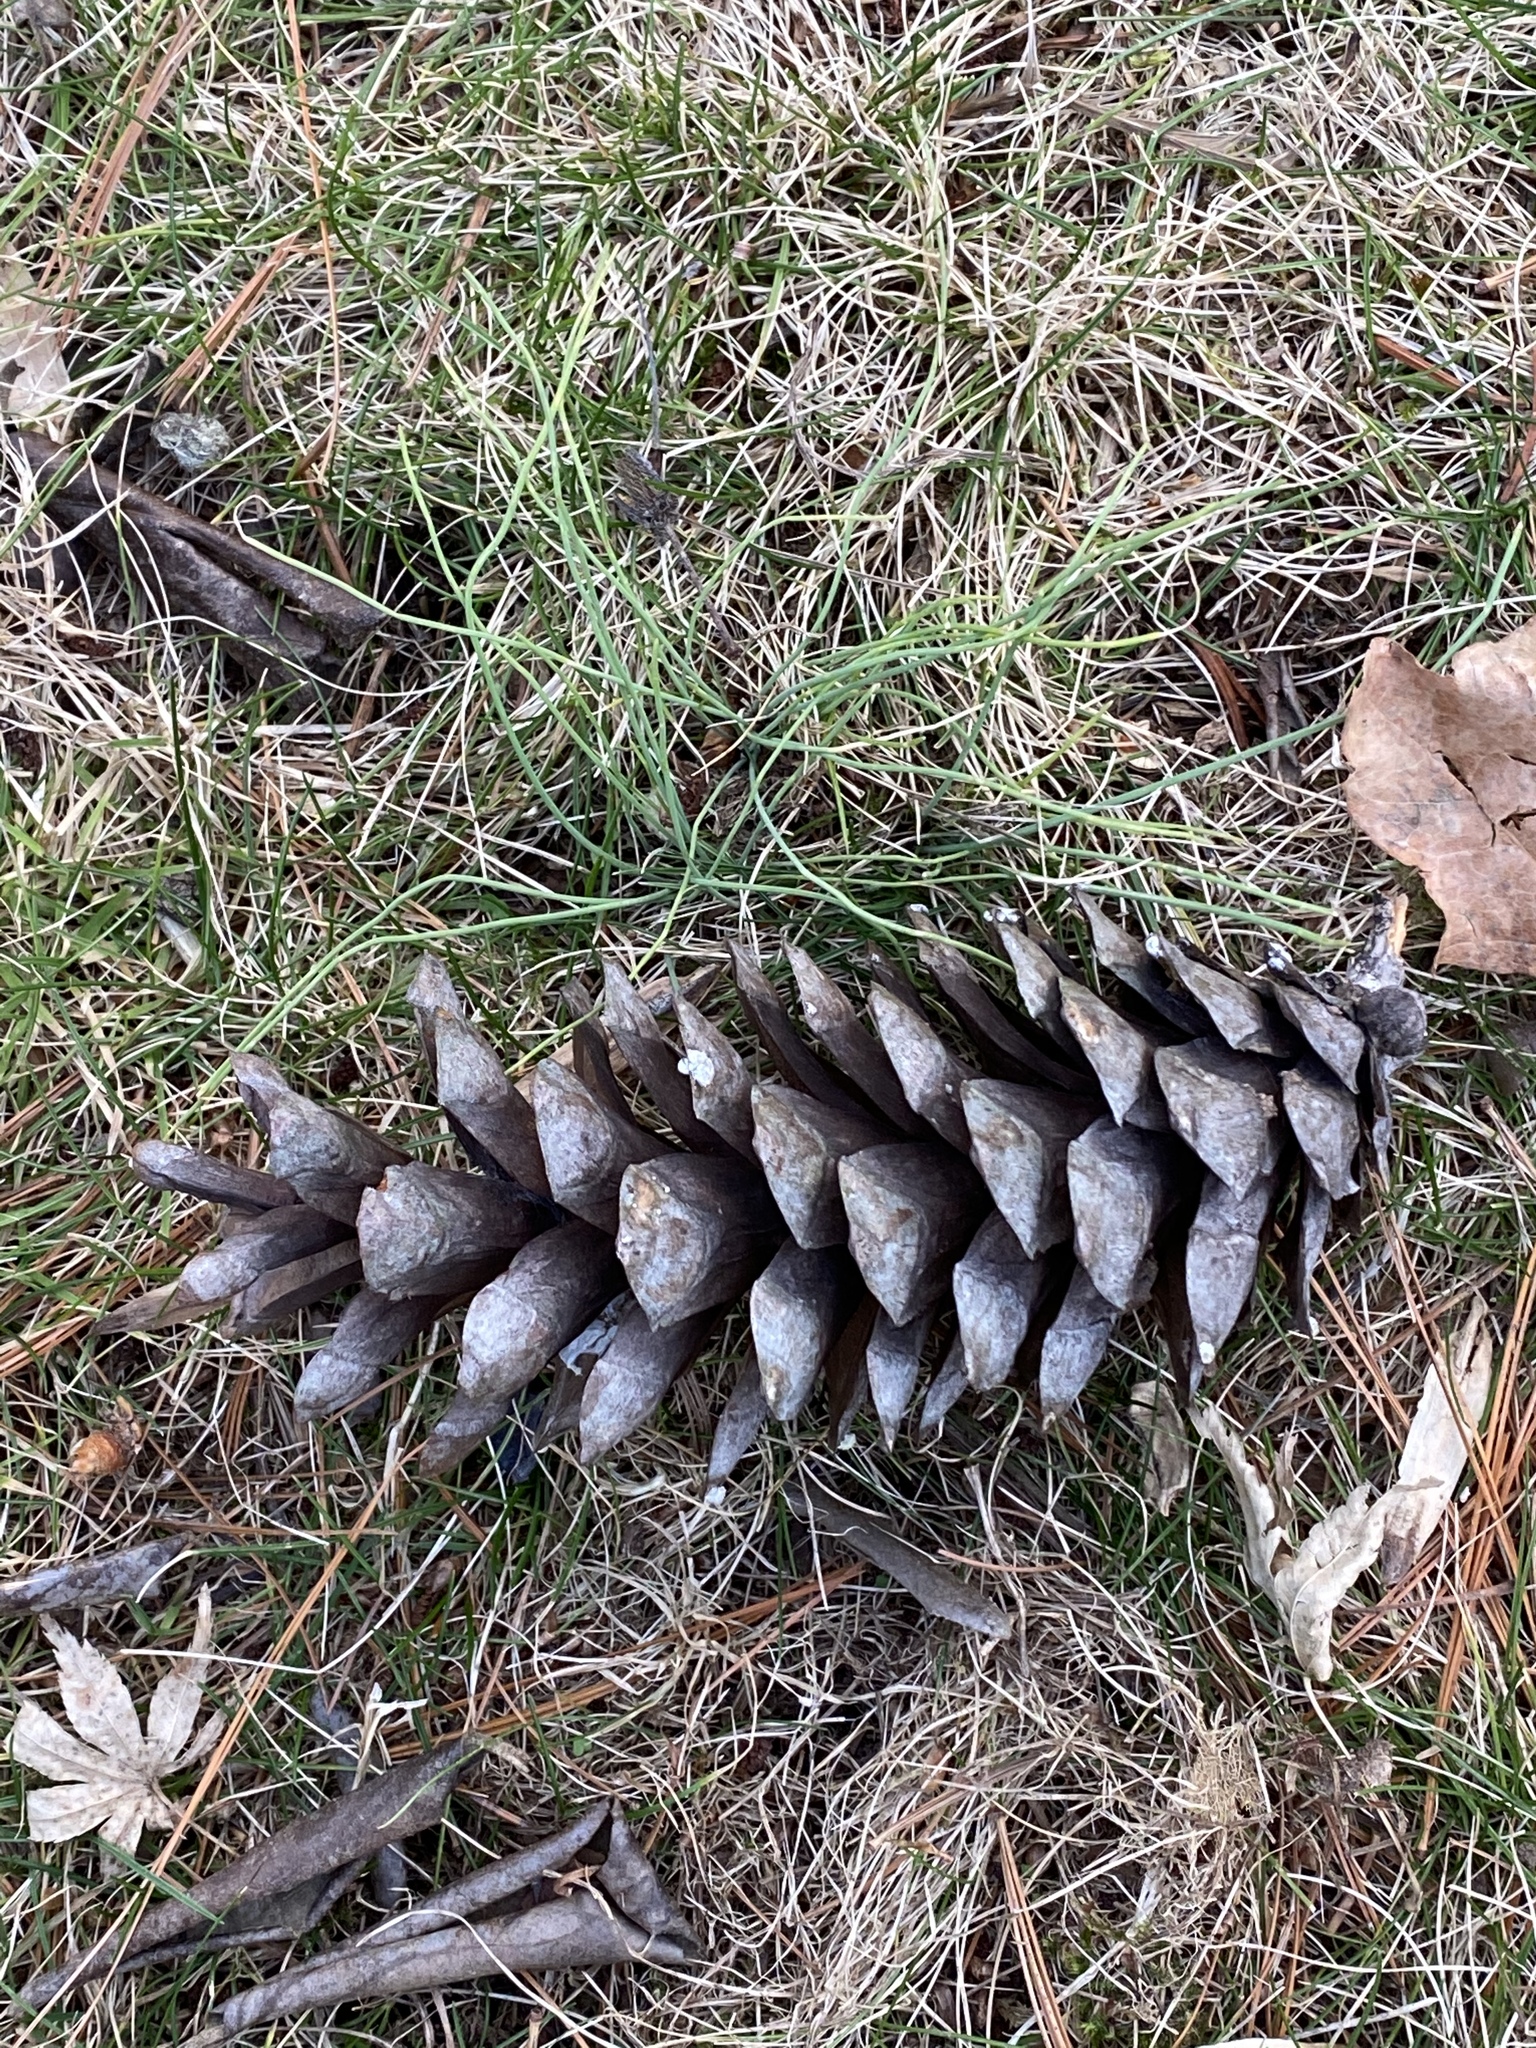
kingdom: Plantae
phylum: Tracheophyta
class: Pinopsida
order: Pinales
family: Pinaceae
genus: Pinus
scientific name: Pinus strobus
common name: Weymouth pine
